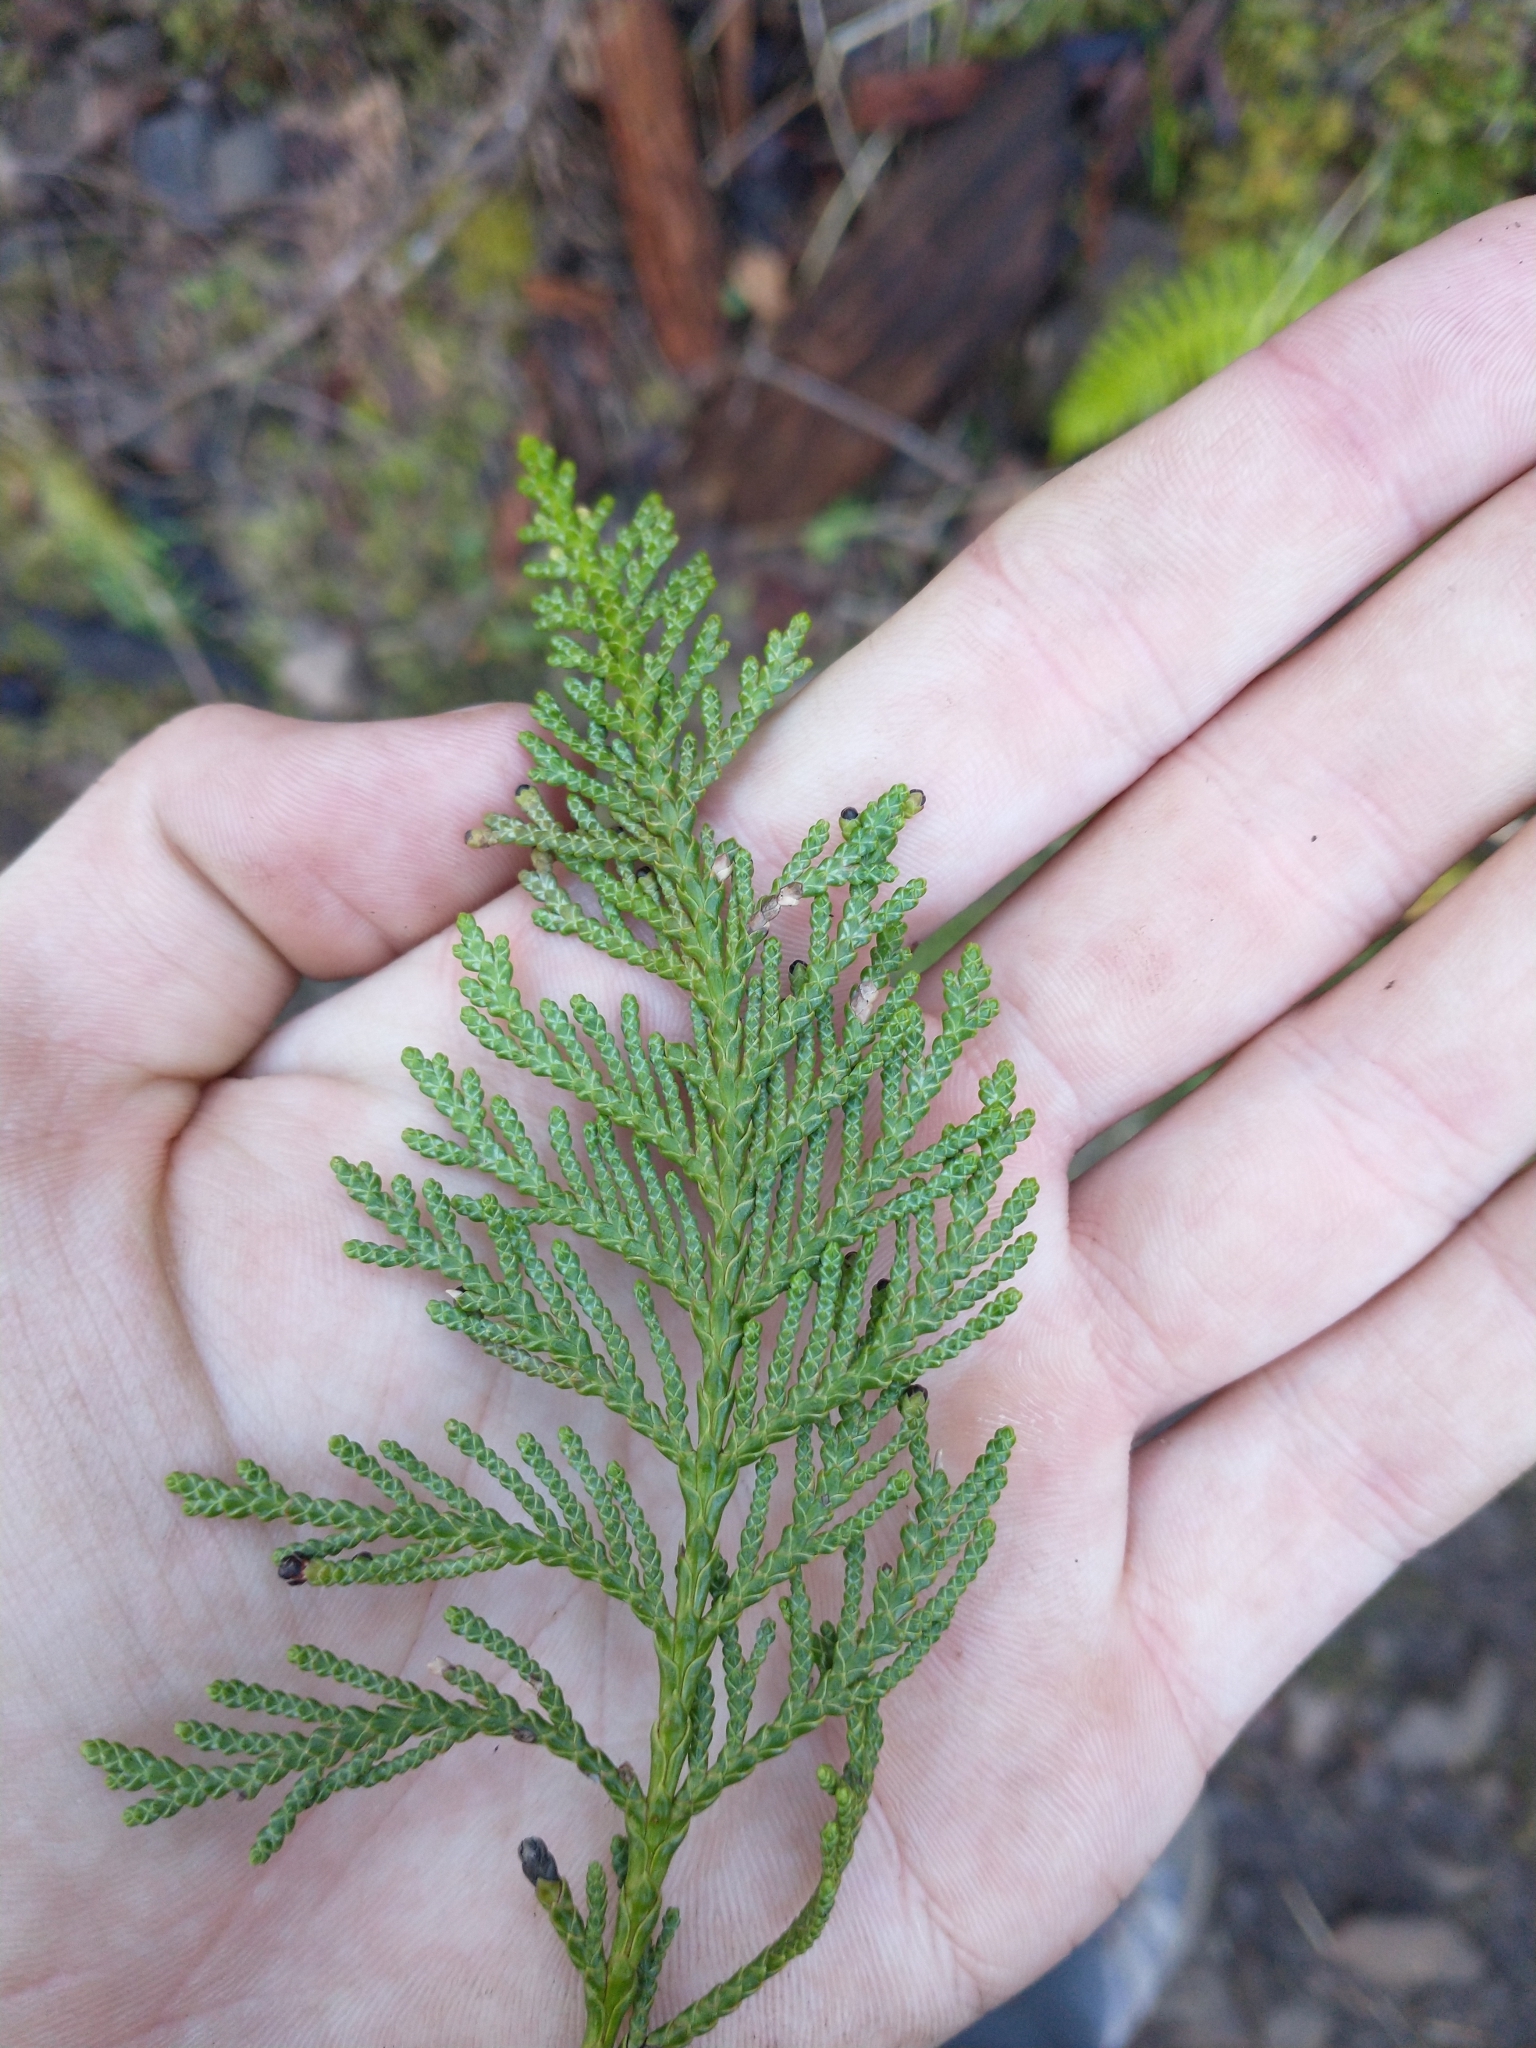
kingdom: Plantae
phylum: Tracheophyta
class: Pinopsida
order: Pinales
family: Cupressaceae
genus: Thuja
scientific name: Thuja plicata
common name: Western red-cedar
